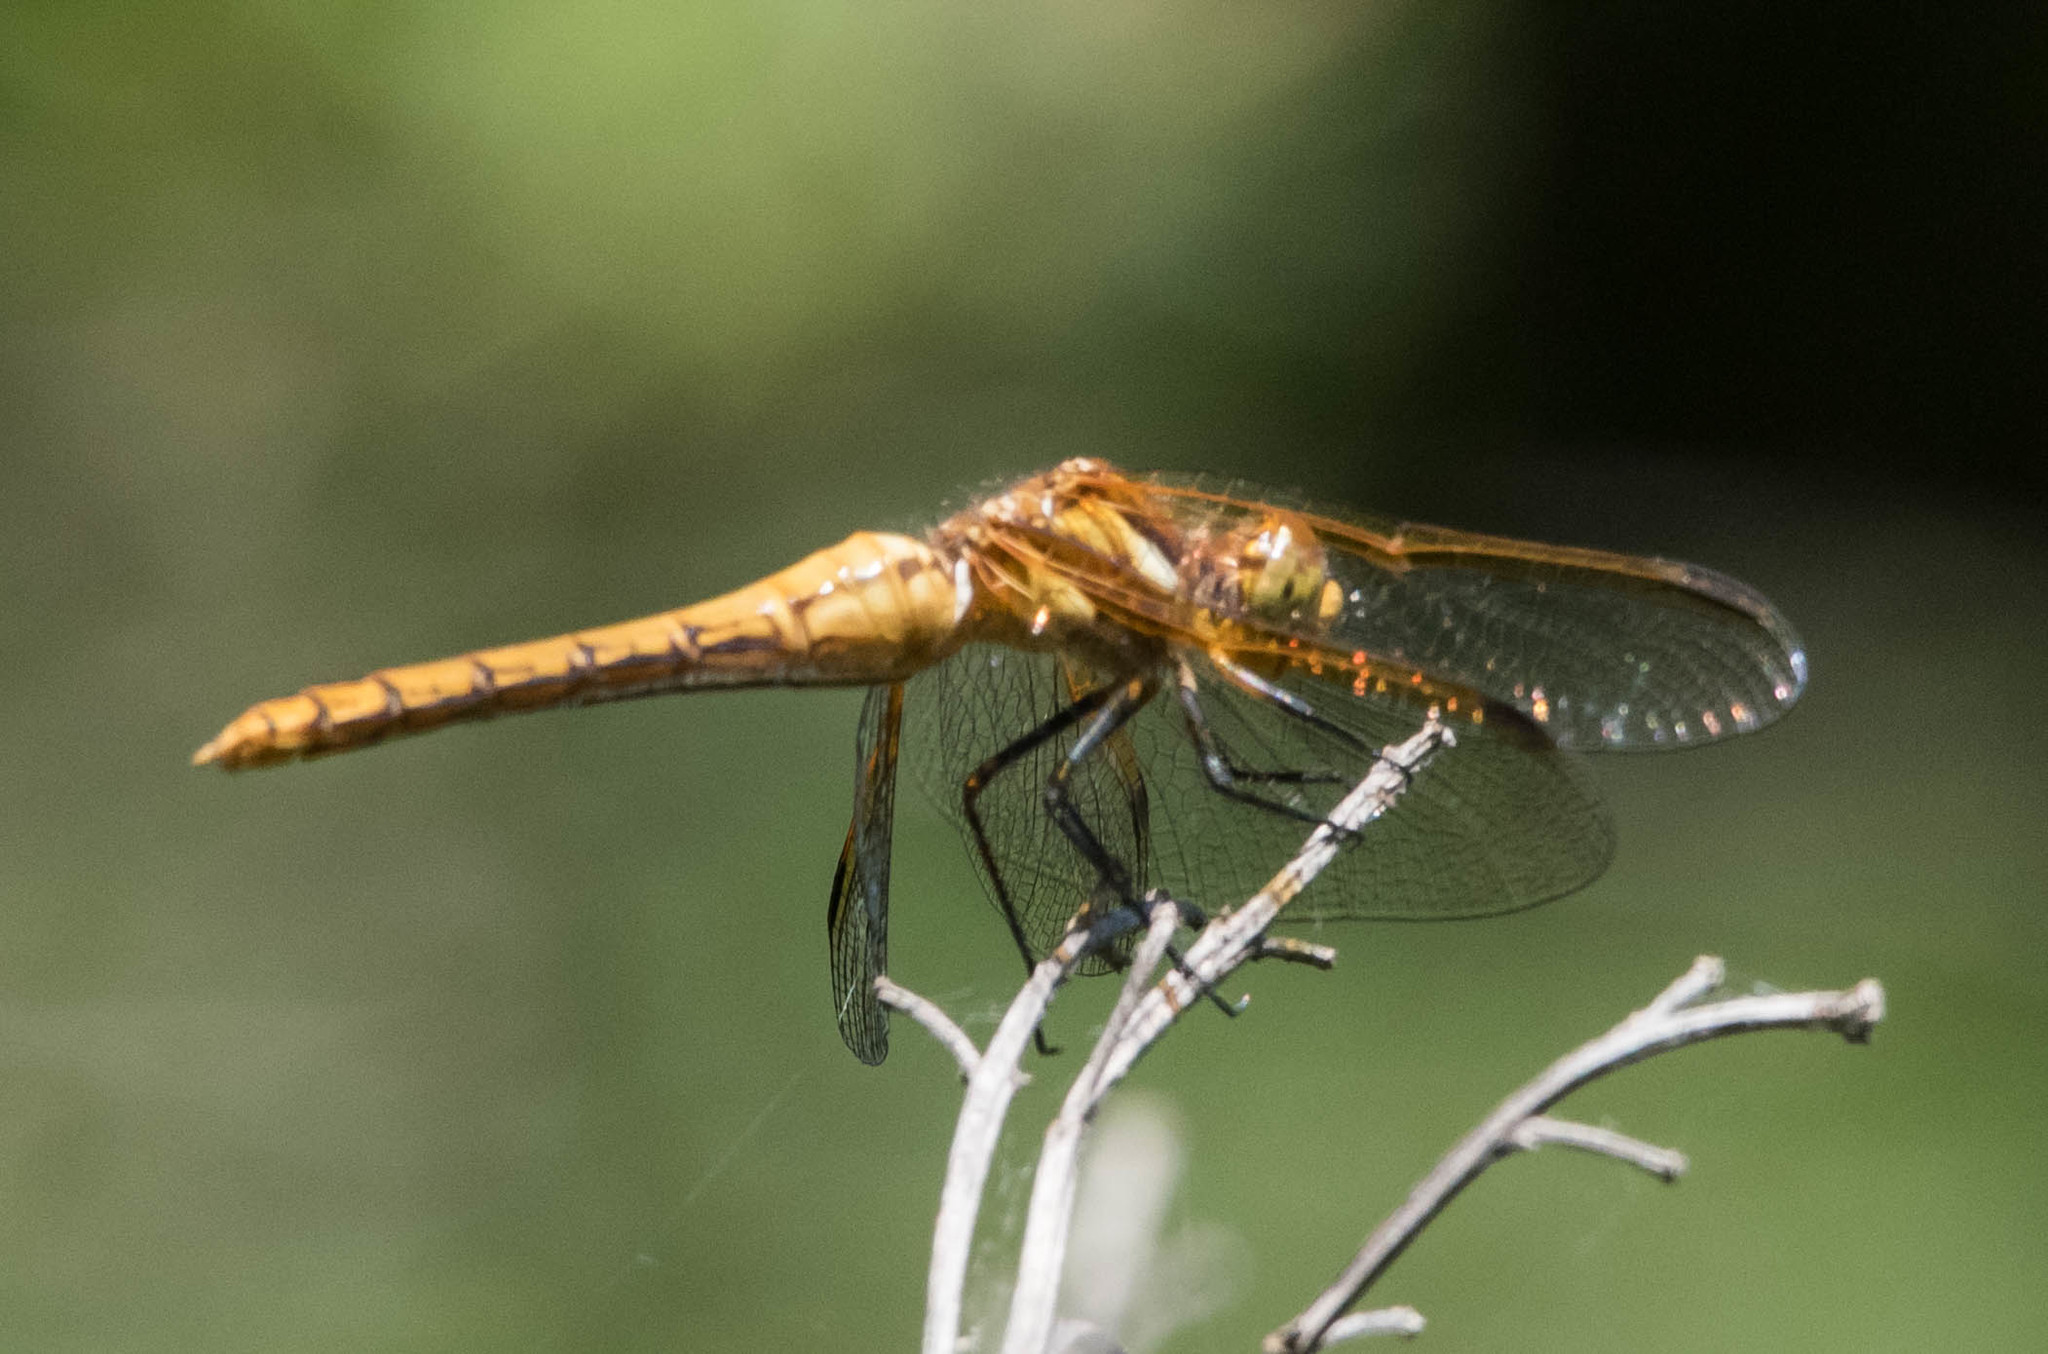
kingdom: Animalia
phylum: Arthropoda
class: Insecta
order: Odonata
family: Libellulidae
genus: Sympetrum
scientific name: Sympetrum madidum
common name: Red-veined meadowhawk
